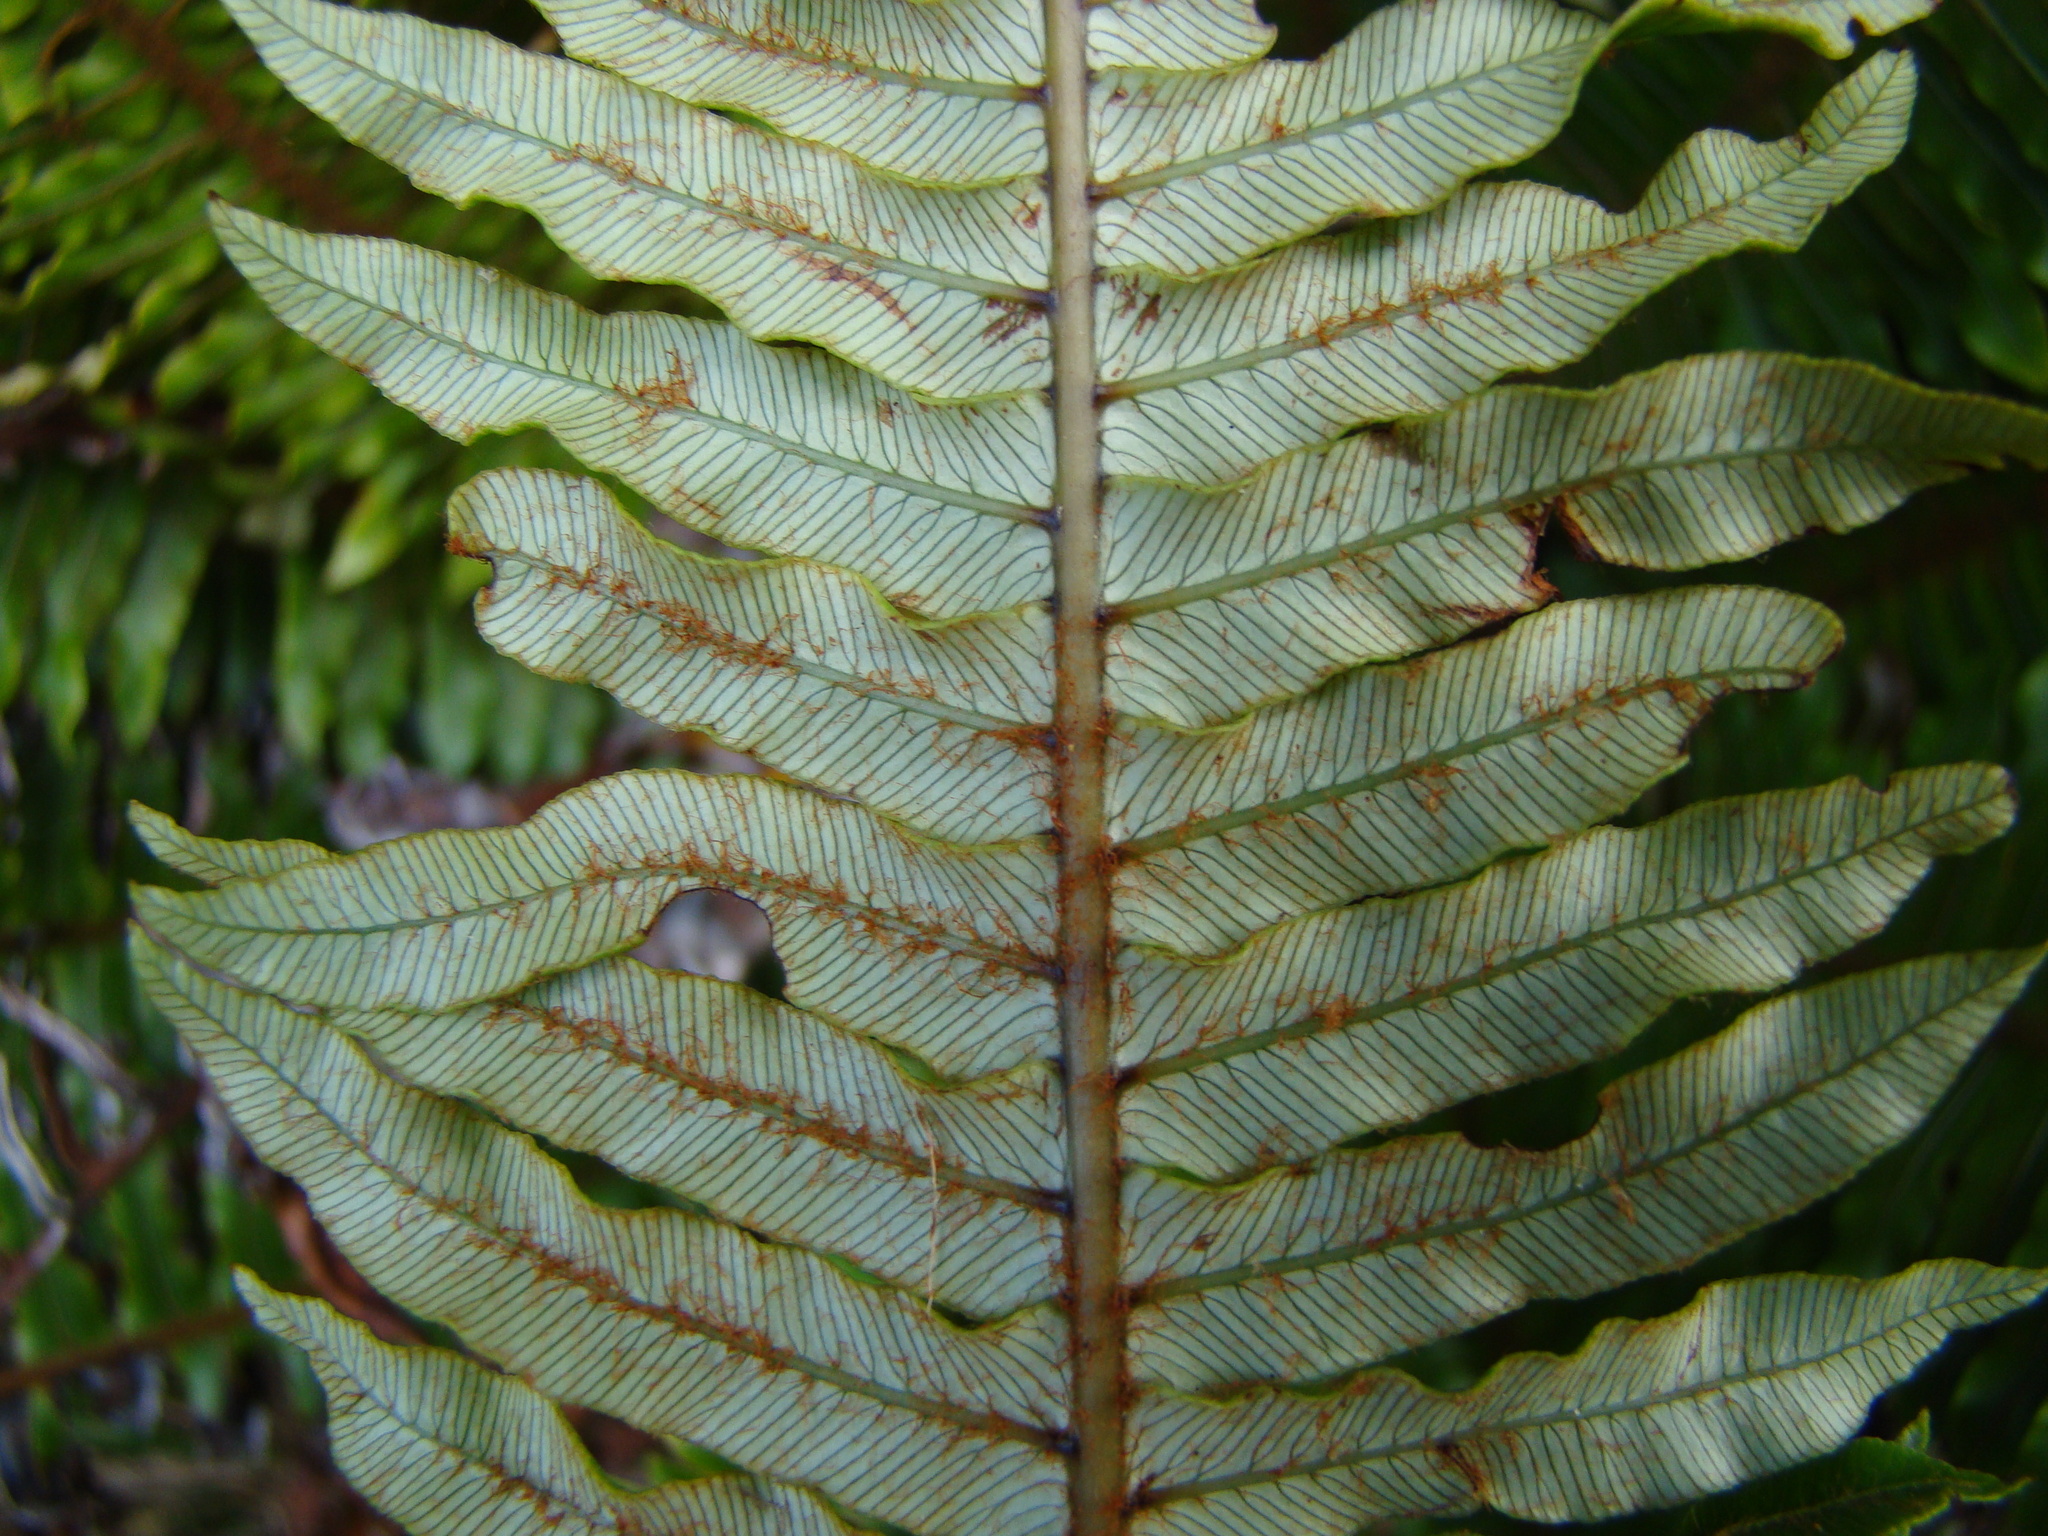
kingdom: Plantae
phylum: Tracheophyta
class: Polypodiopsida
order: Polypodiales
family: Blechnaceae
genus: Lomaria
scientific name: Lomaria discolor
